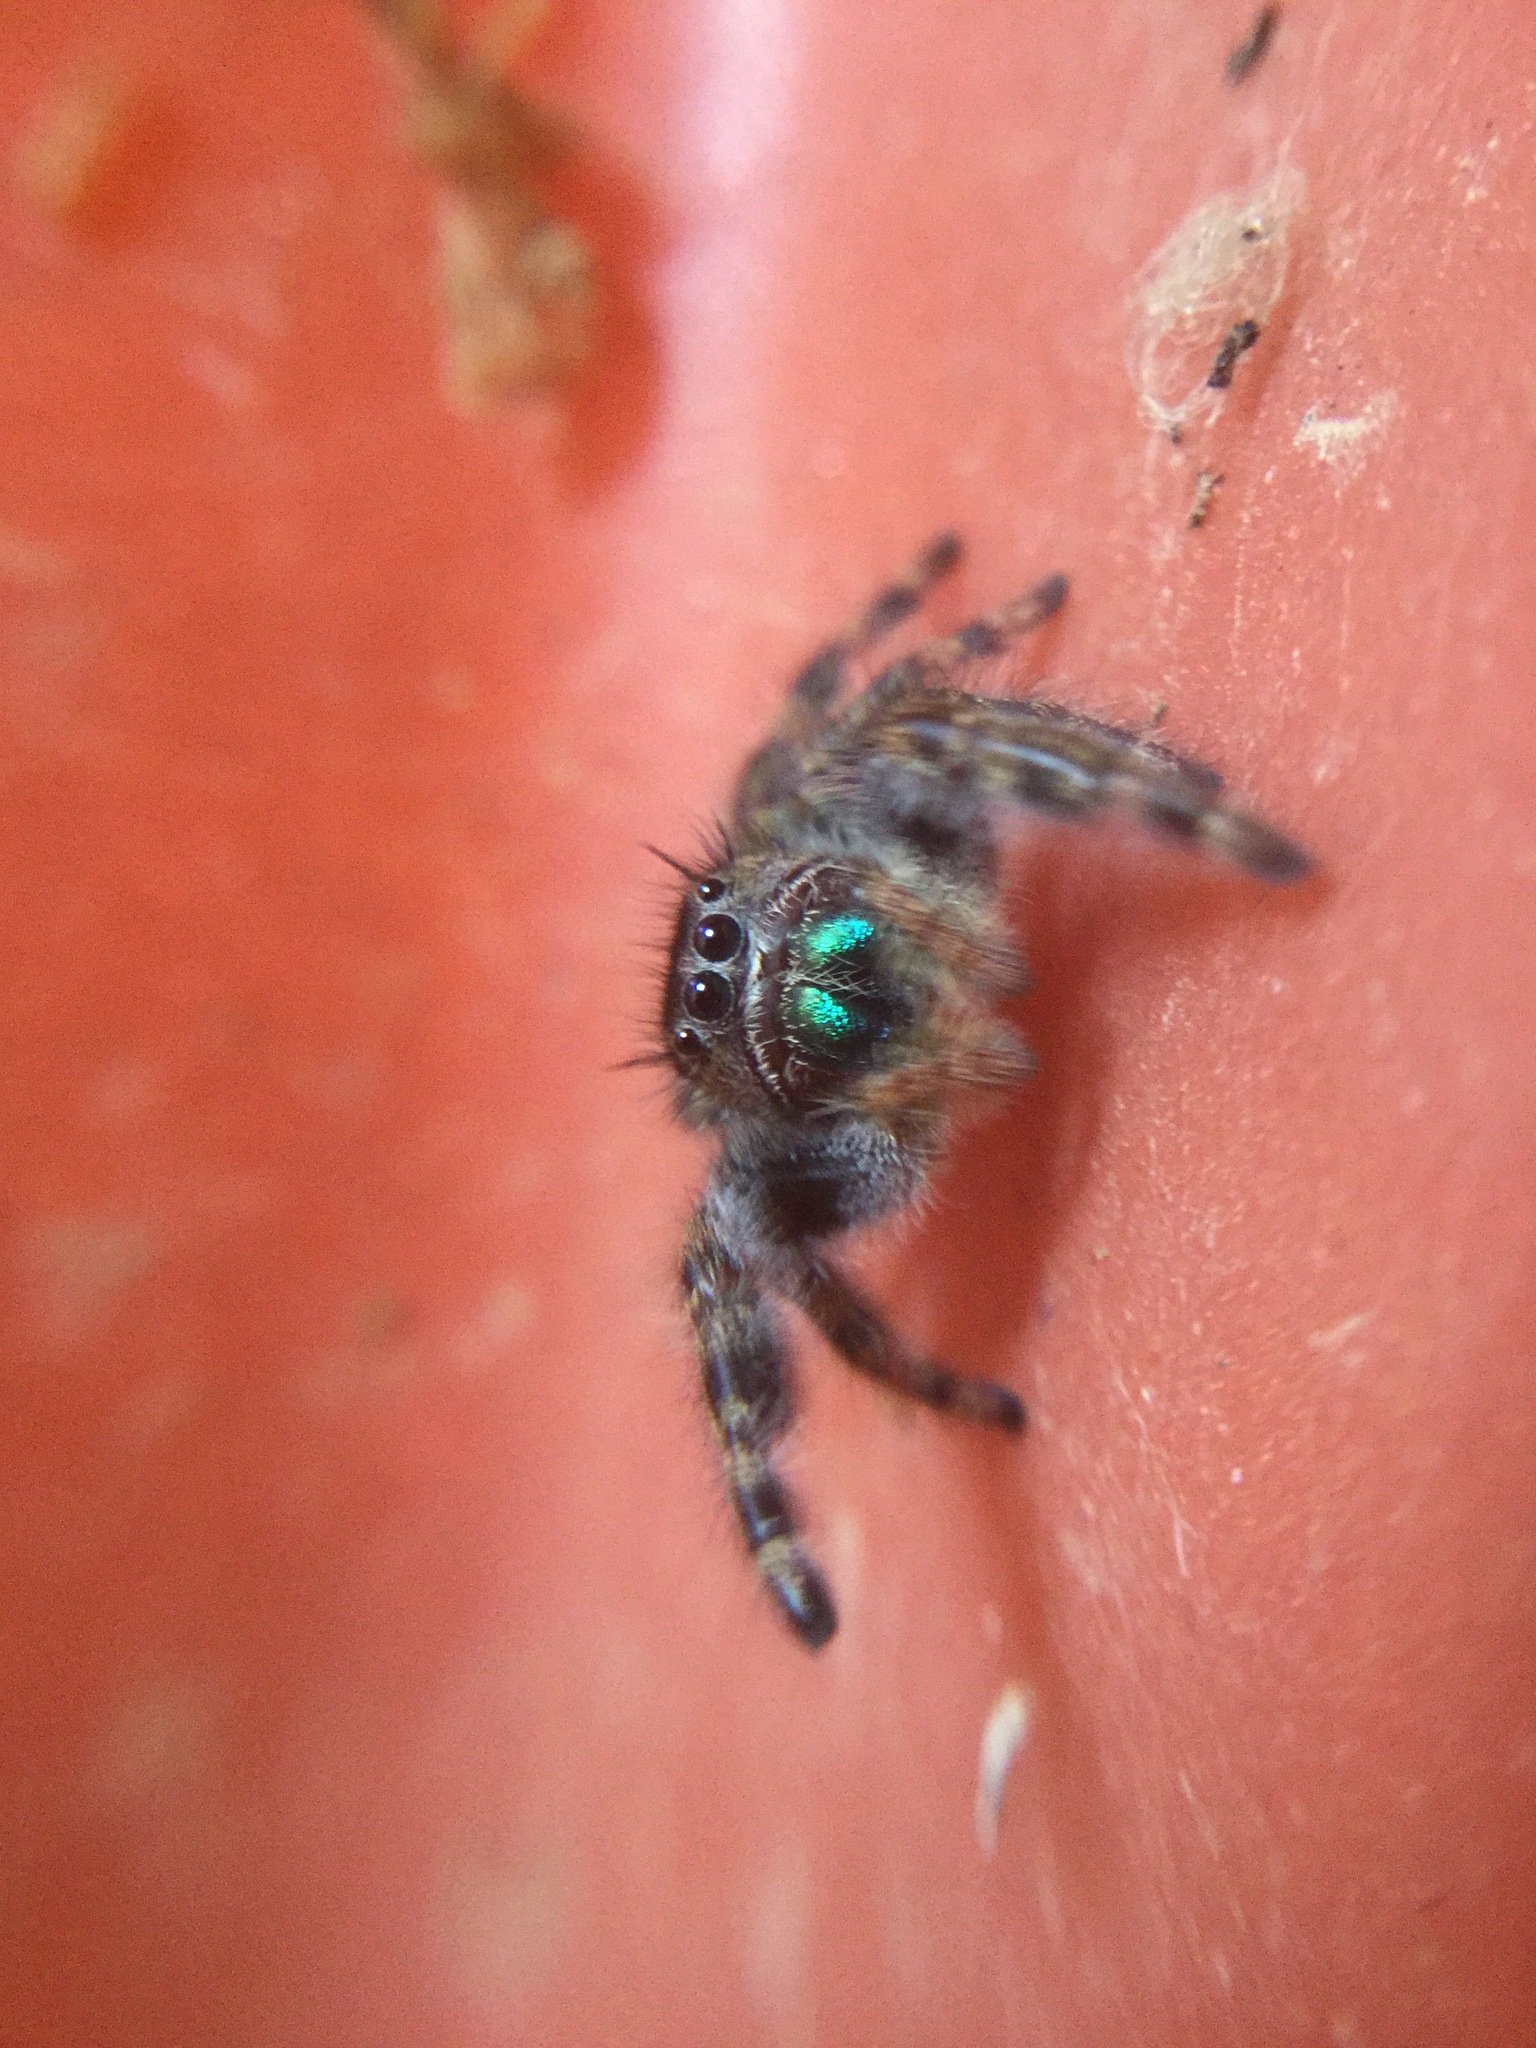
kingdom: Animalia
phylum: Arthropoda
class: Arachnida
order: Araneae
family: Salticidae
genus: Phidippus
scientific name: Phidippus audax
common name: Bold jumper
